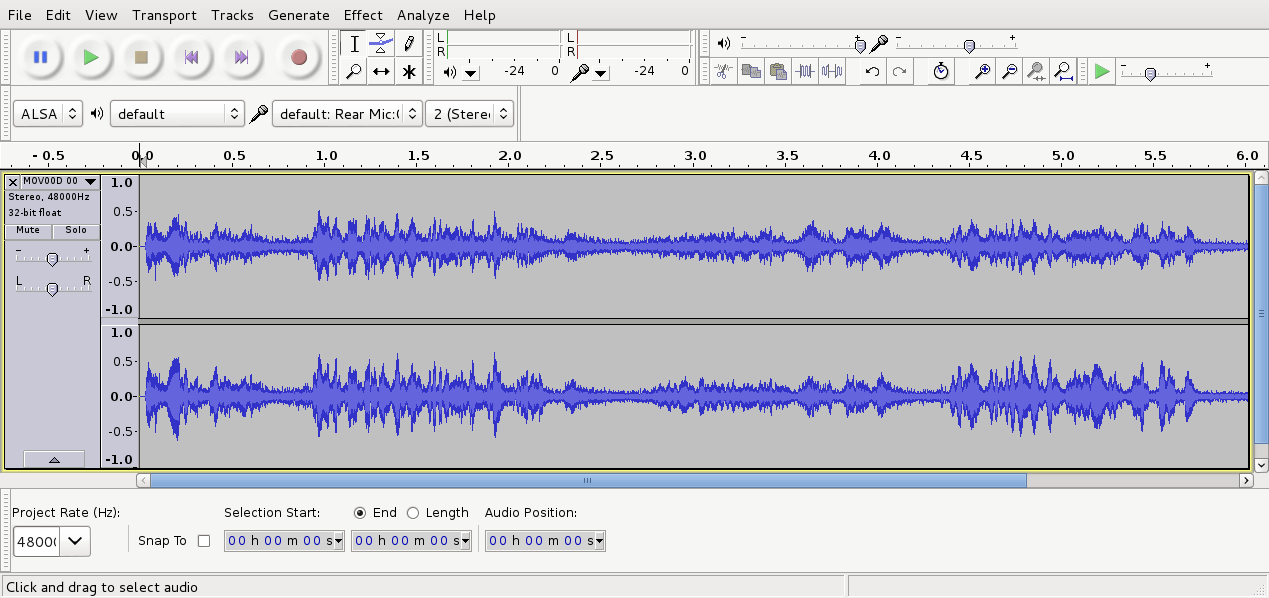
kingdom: Animalia
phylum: Chordata
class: Aves
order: Passeriformes
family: Acanthizidae
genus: Gerygone
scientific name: Gerygone igata
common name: Grey gerygone
